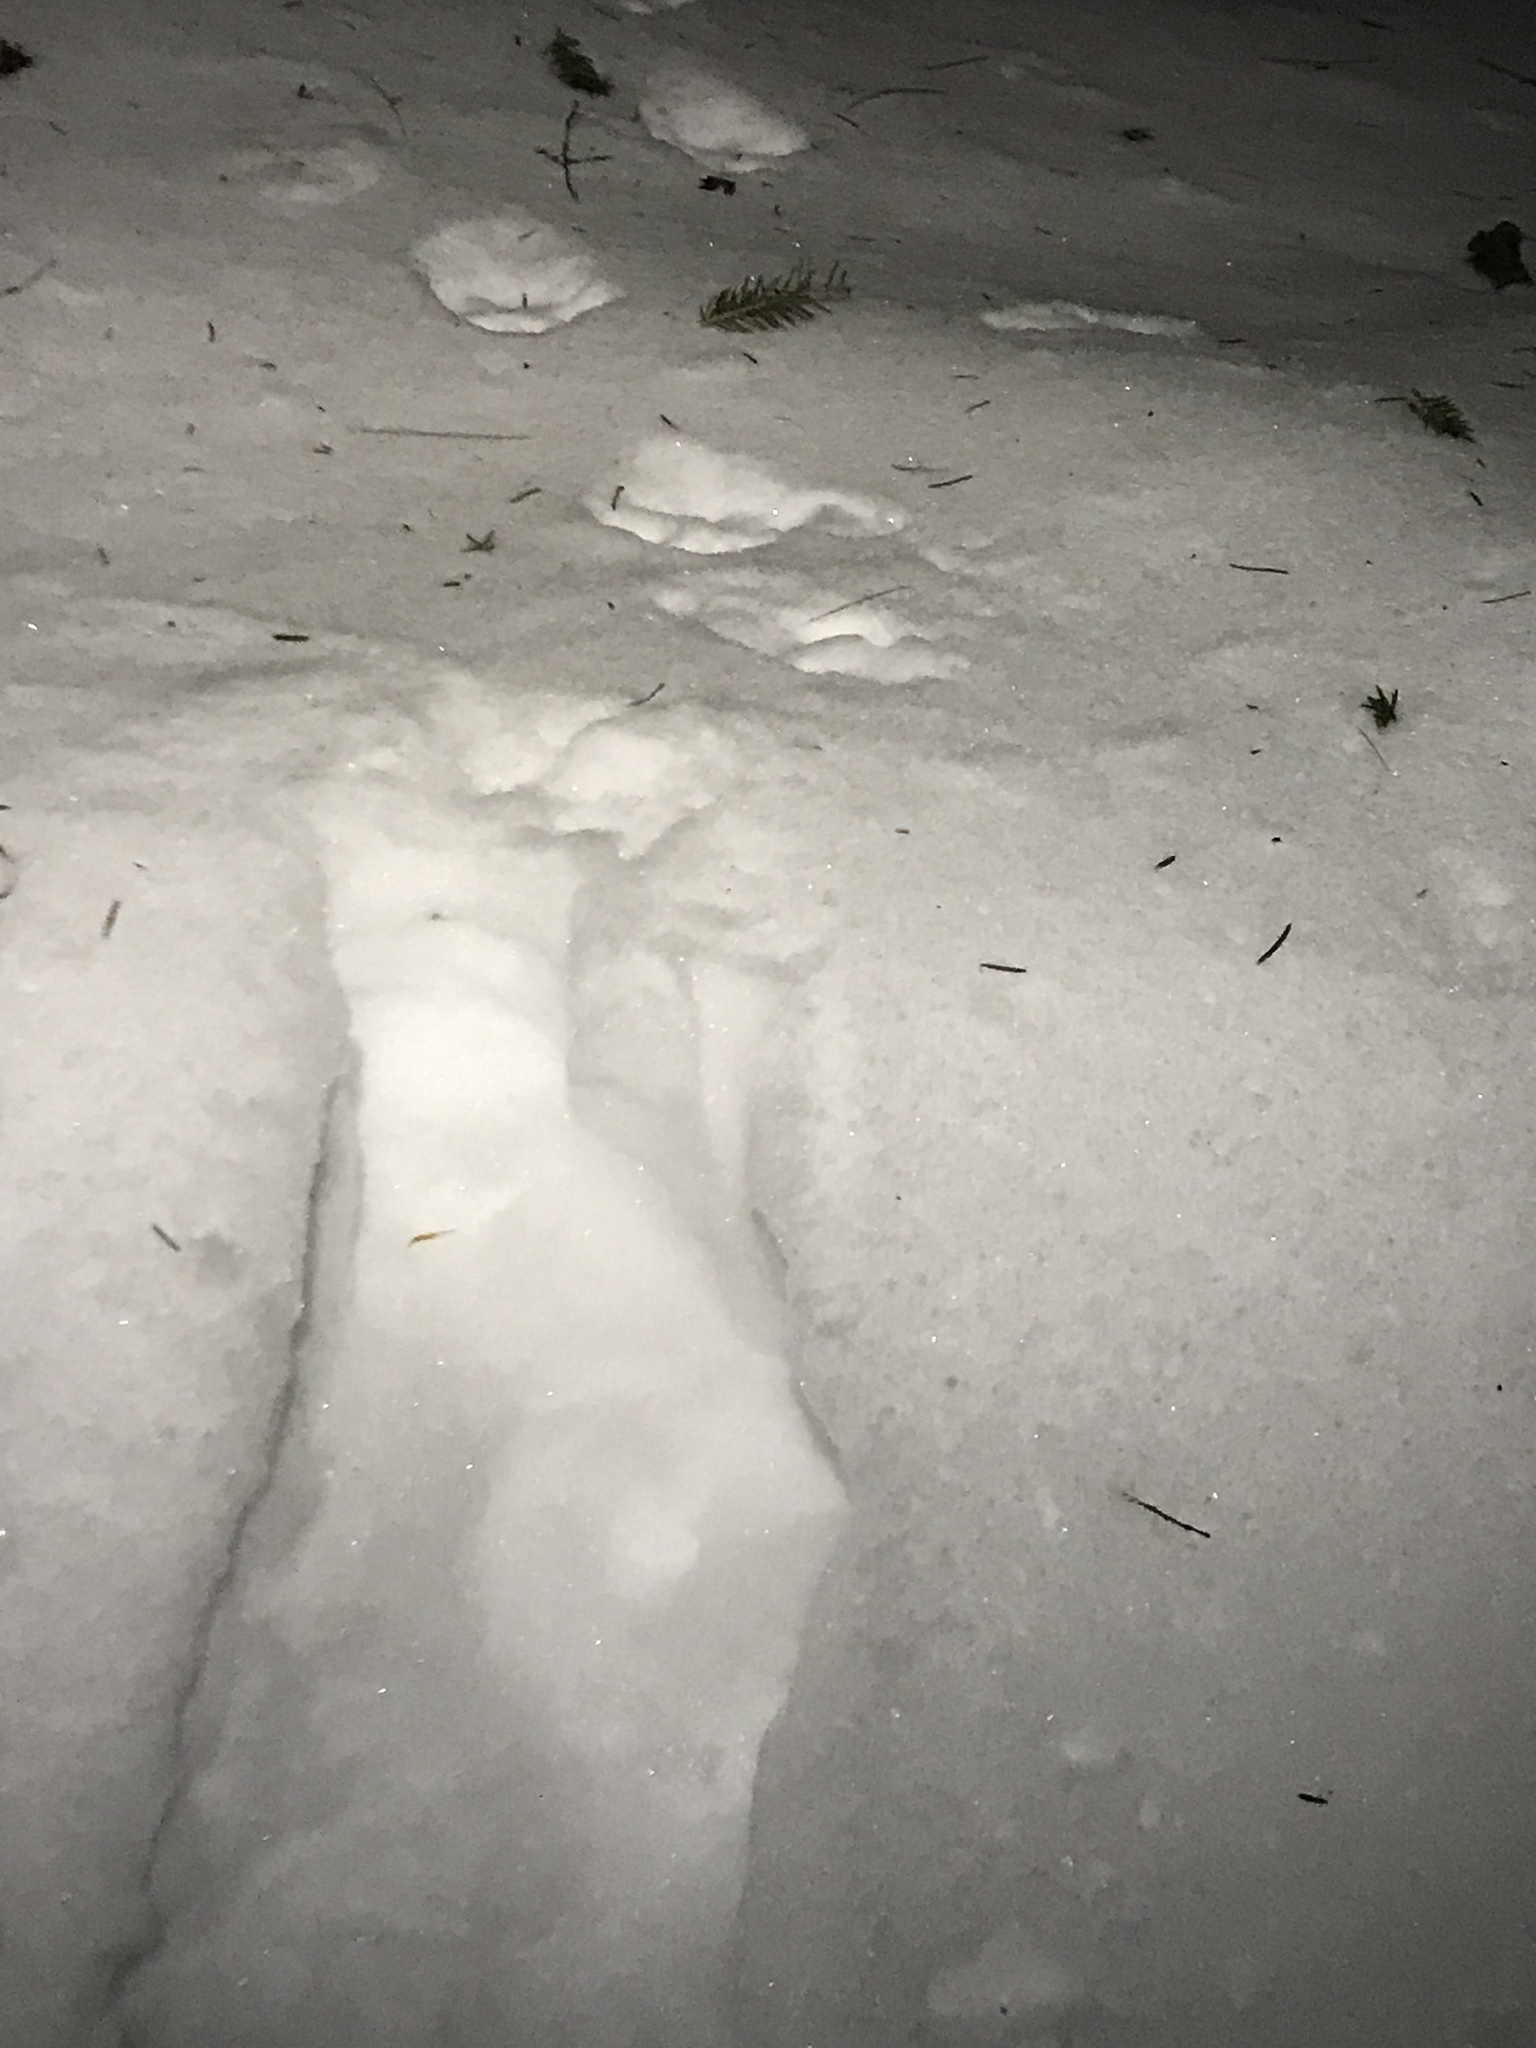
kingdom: Animalia
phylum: Chordata
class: Mammalia
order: Carnivora
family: Canidae
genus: Canis
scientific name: Canis latrans
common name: Coyote
